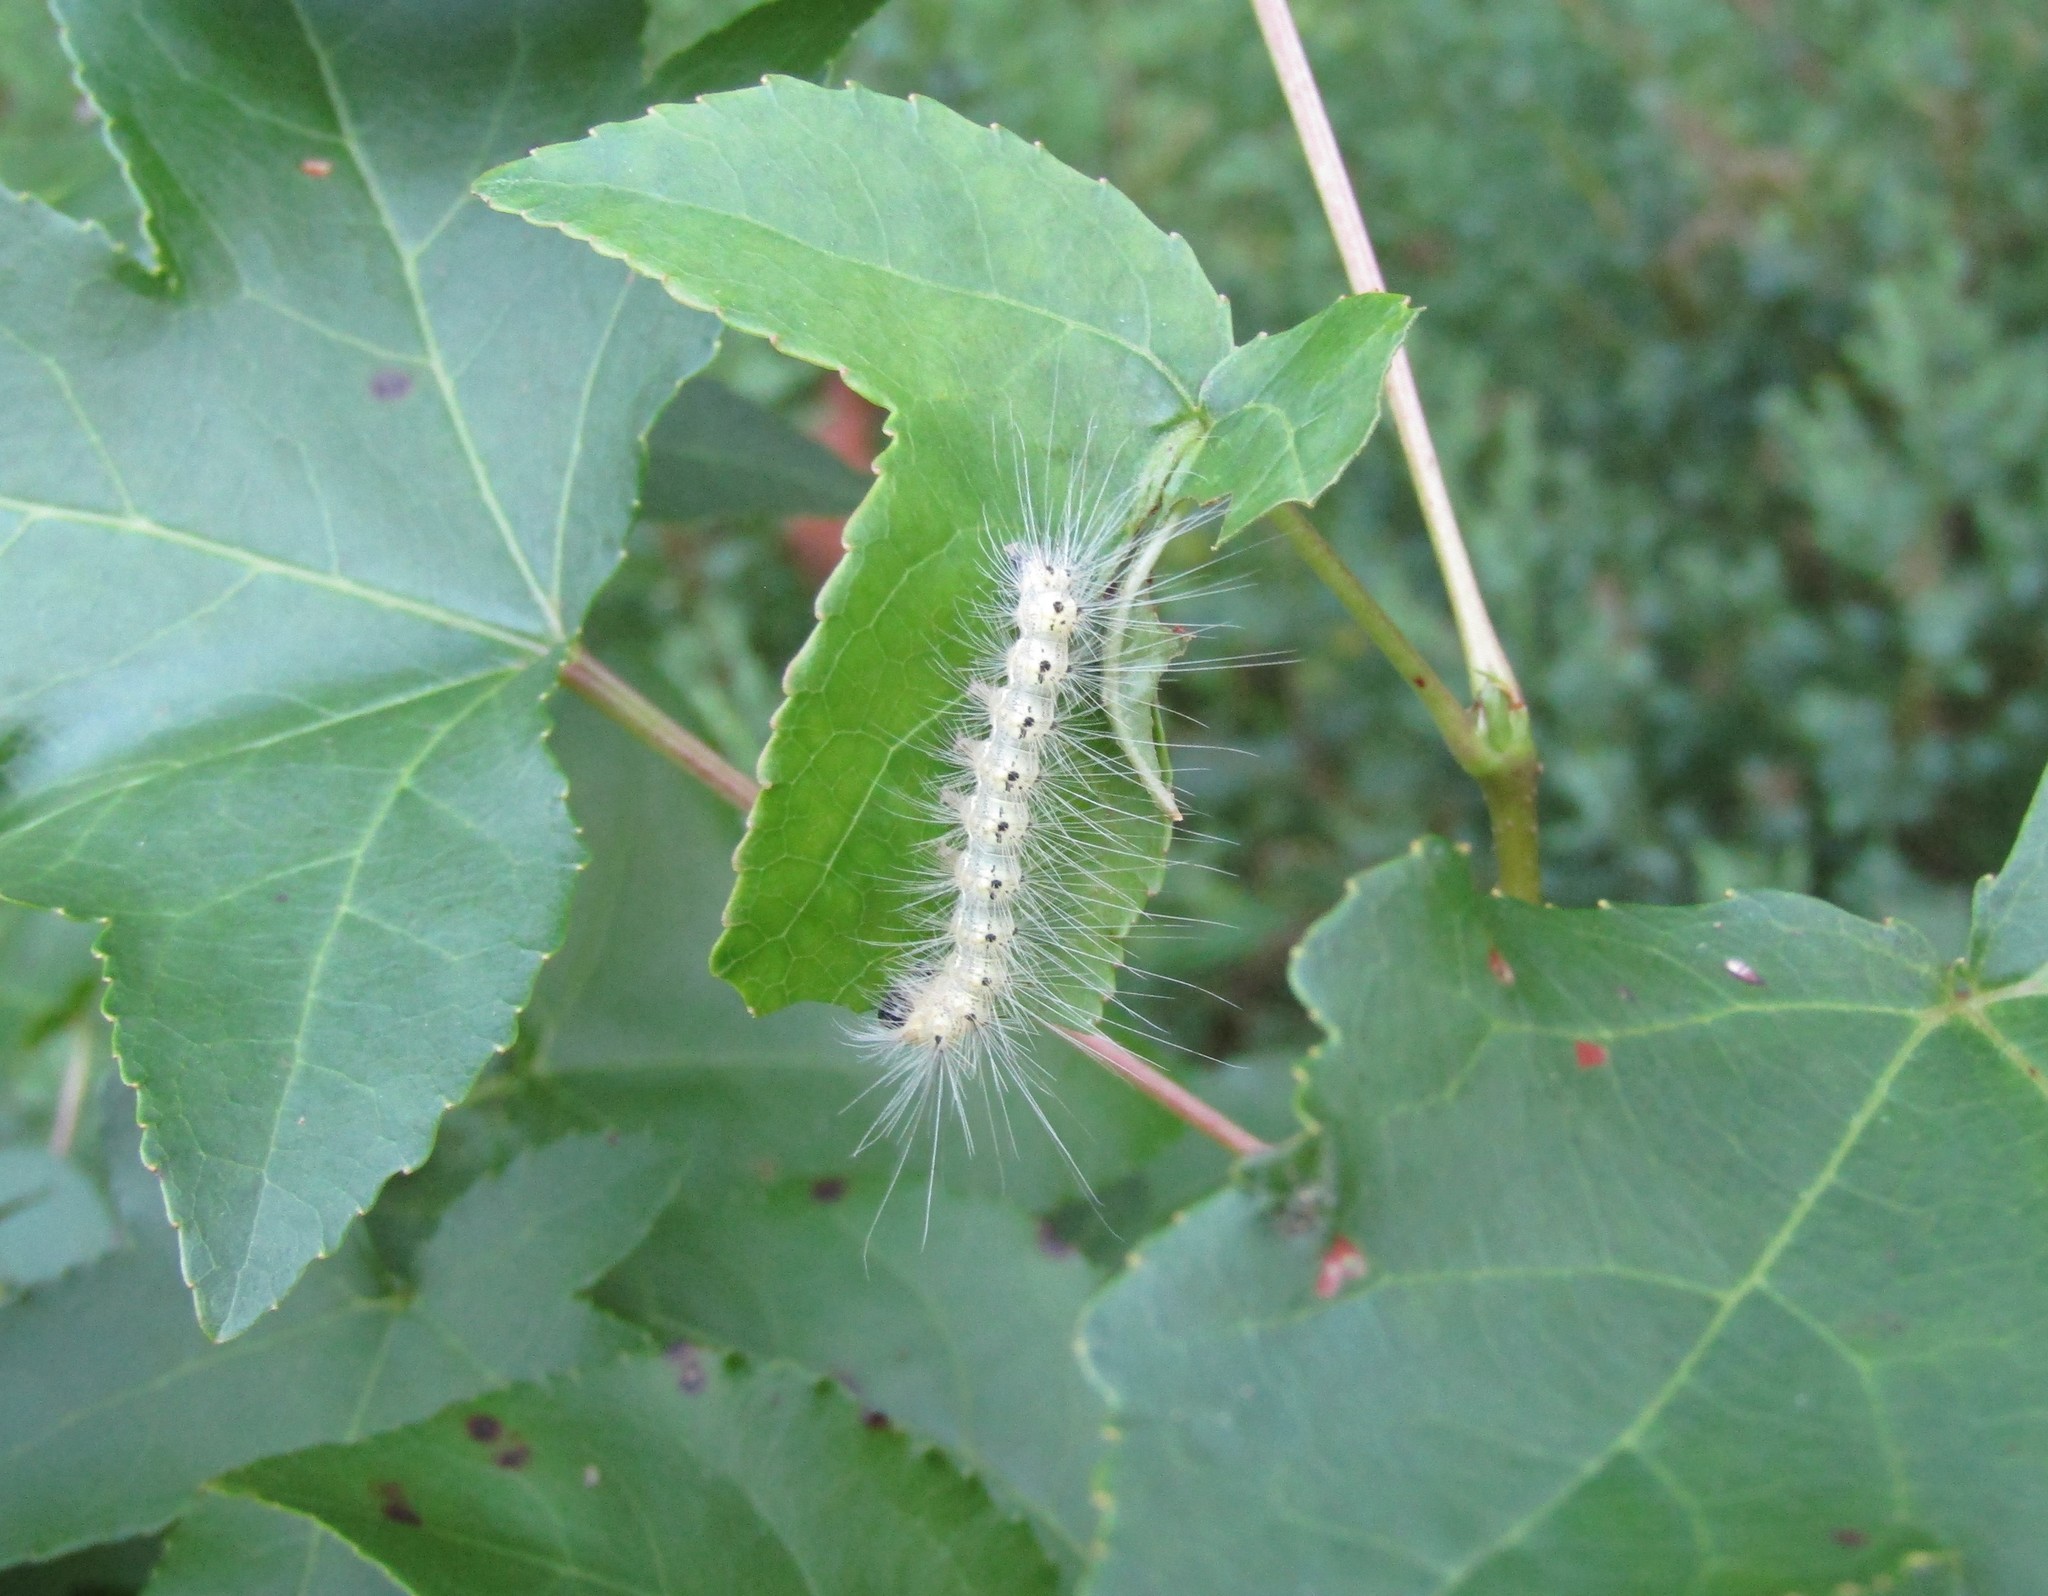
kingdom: Animalia
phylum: Arthropoda
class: Insecta
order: Lepidoptera
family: Erebidae
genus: Hyphantria
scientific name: Hyphantria cunea
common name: American white moth
